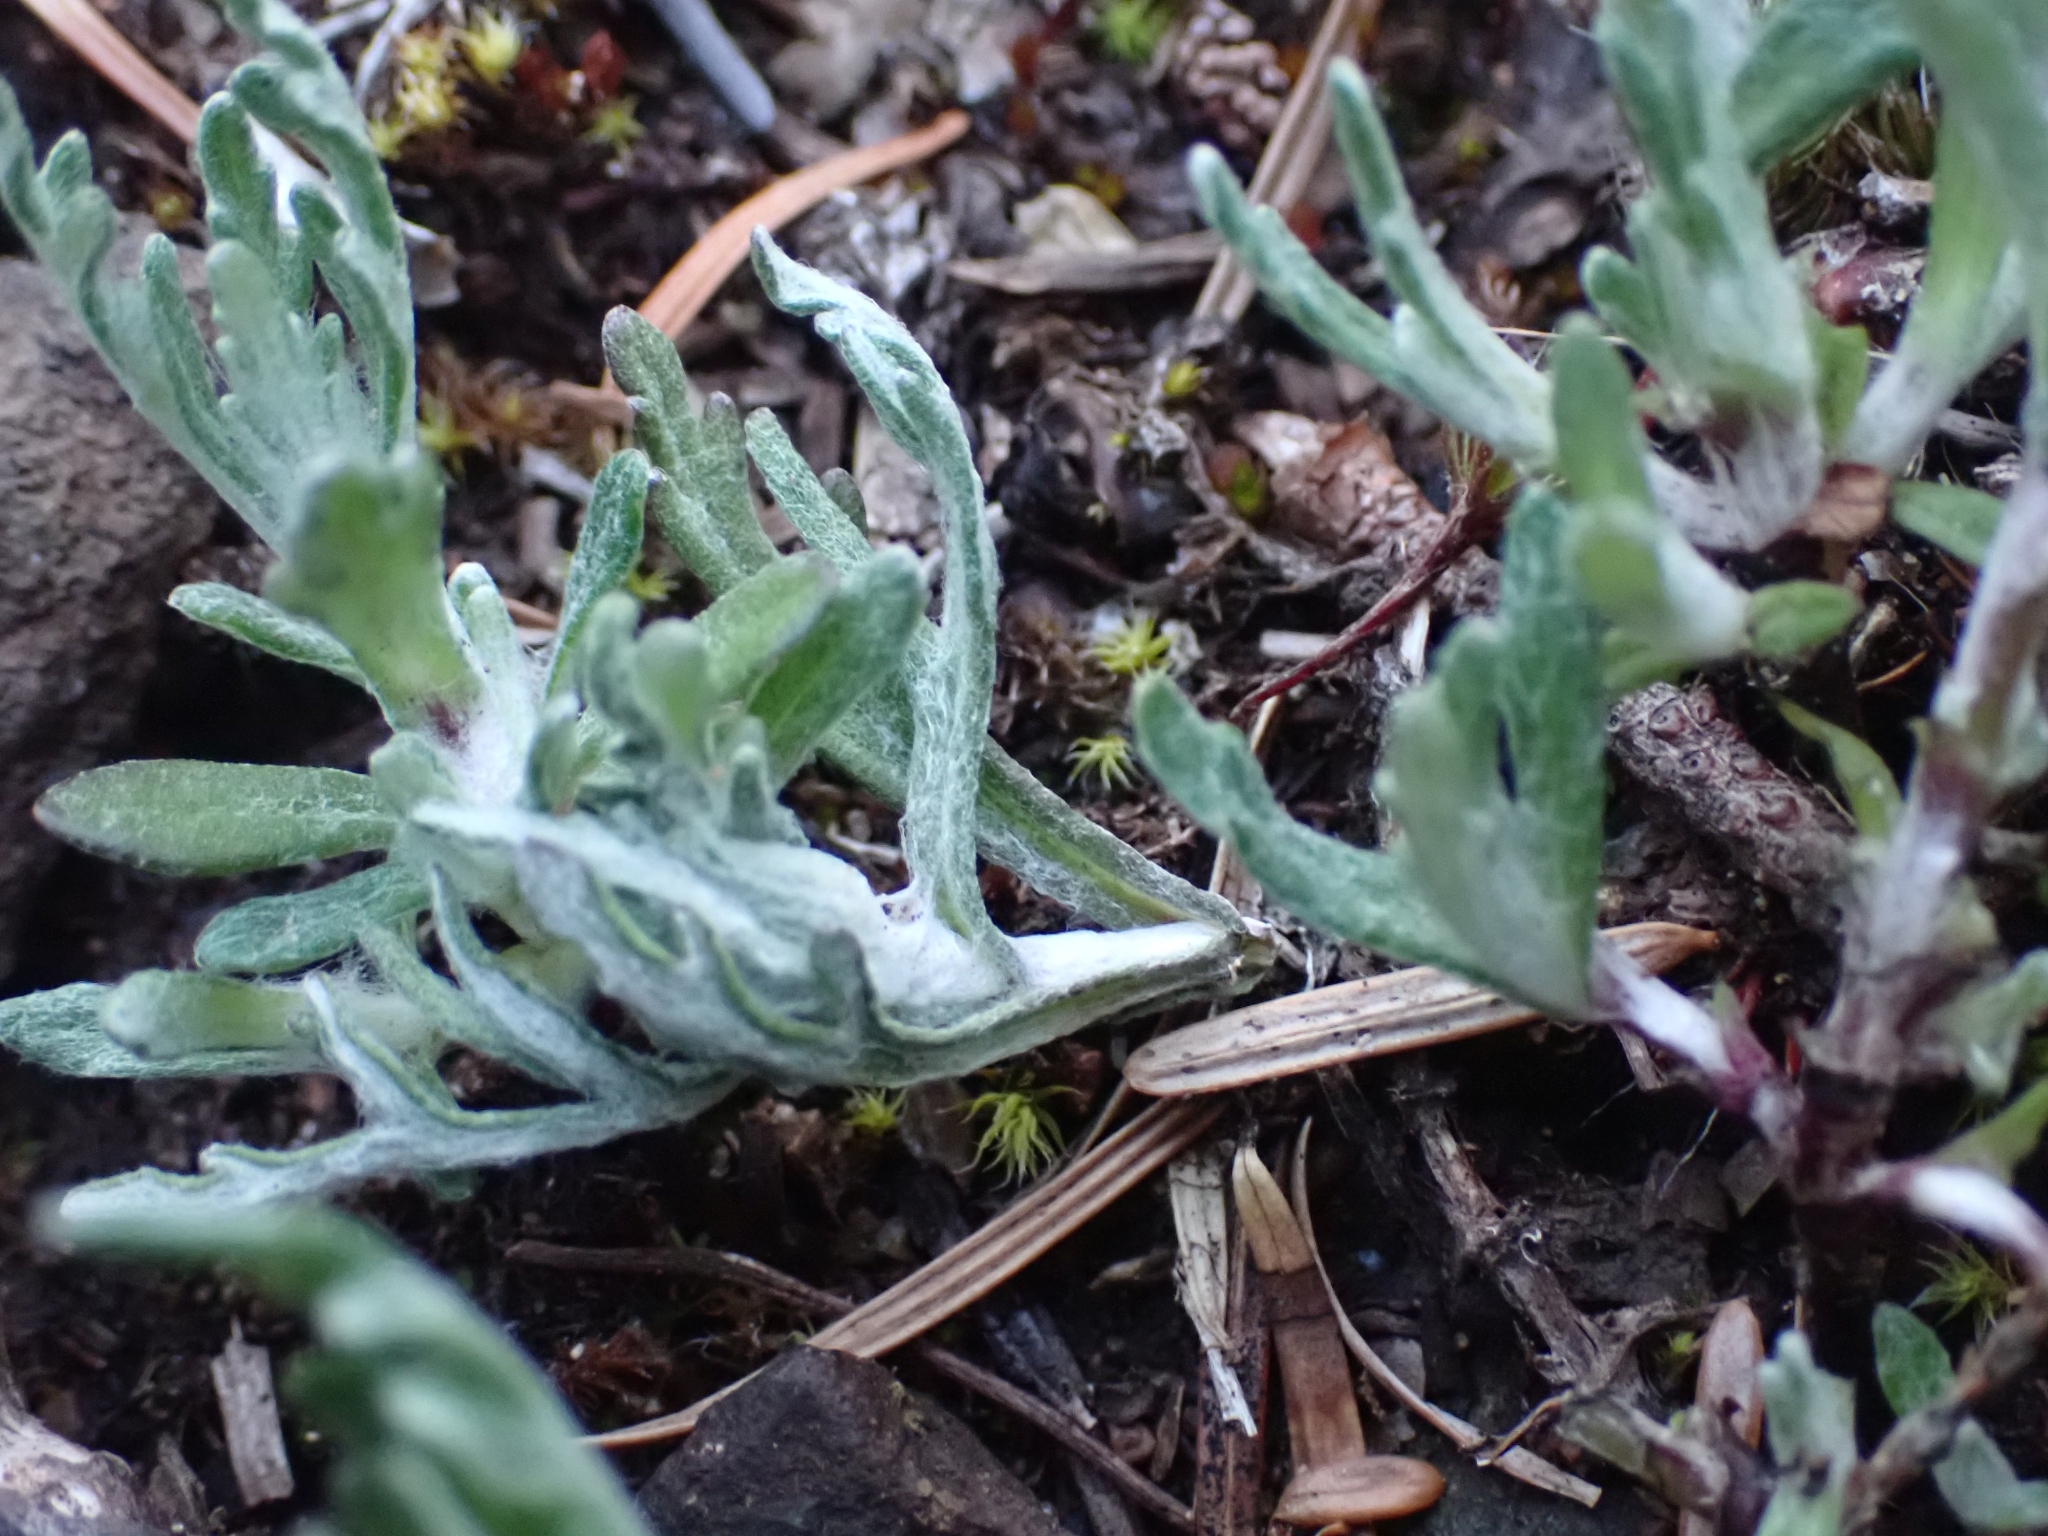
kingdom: Plantae
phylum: Tracheophyta
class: Magnoliopsida
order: Asterales
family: Asteraceae
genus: Eriophyllum
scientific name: Eriophyllum lanatum
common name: Common woolly-sunflower
